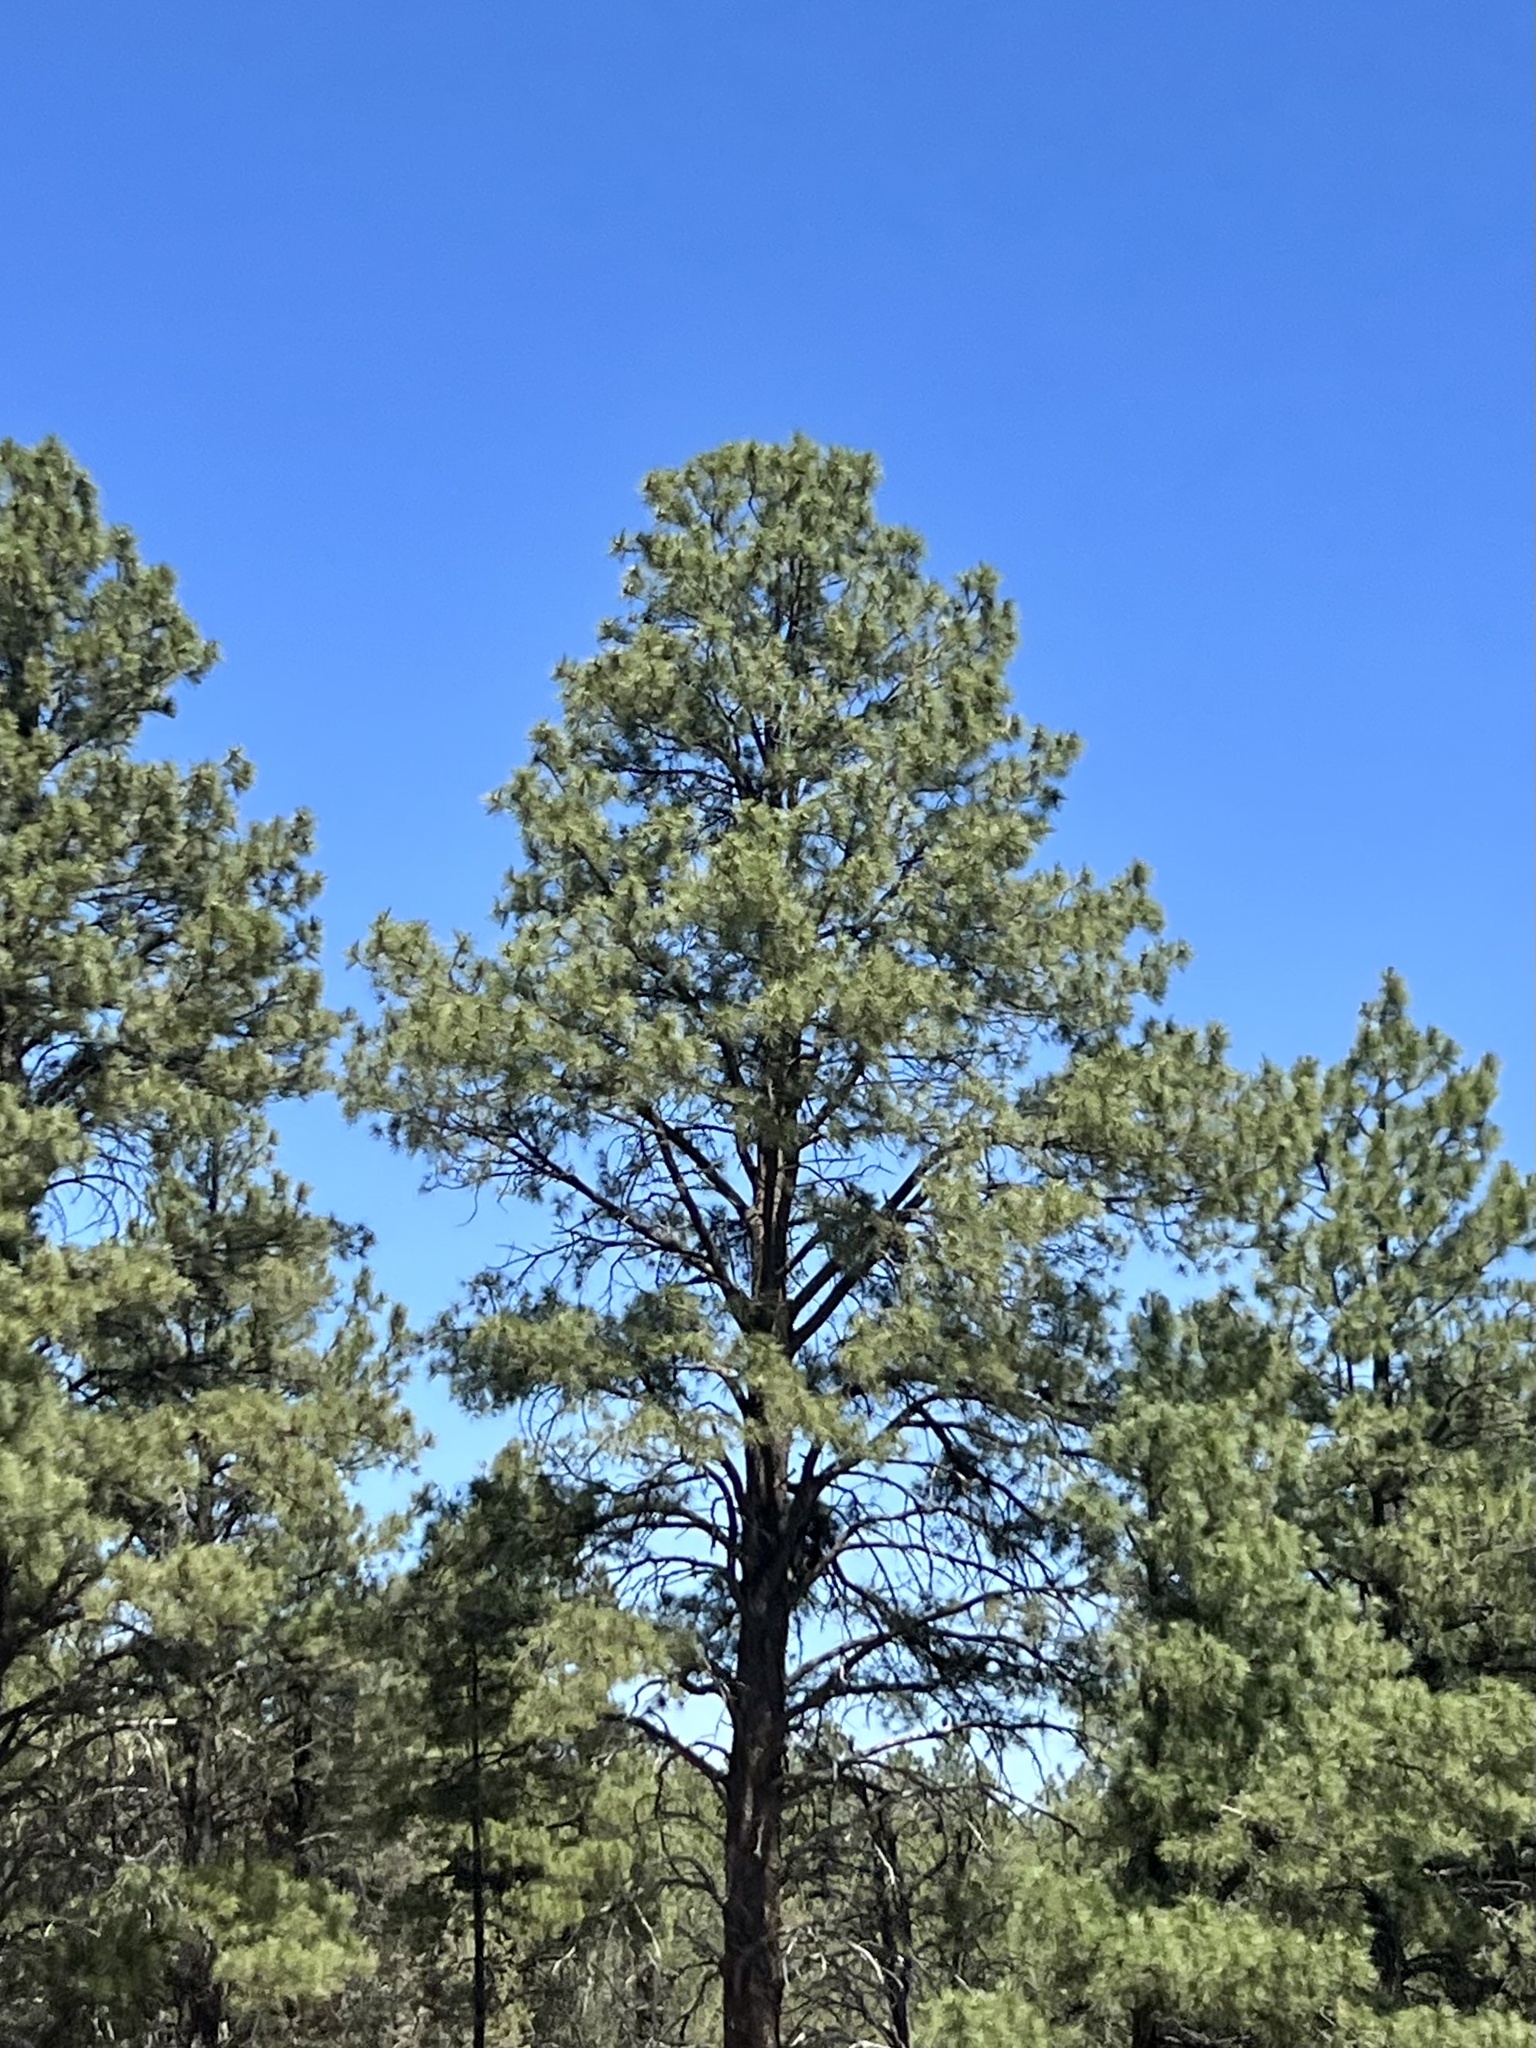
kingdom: Plantae
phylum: Tracheophyta
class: Pinopsida
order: Pinales
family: Pinaceae
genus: Pinus
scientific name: Pinus ponderosa
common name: Western yellow-pine
